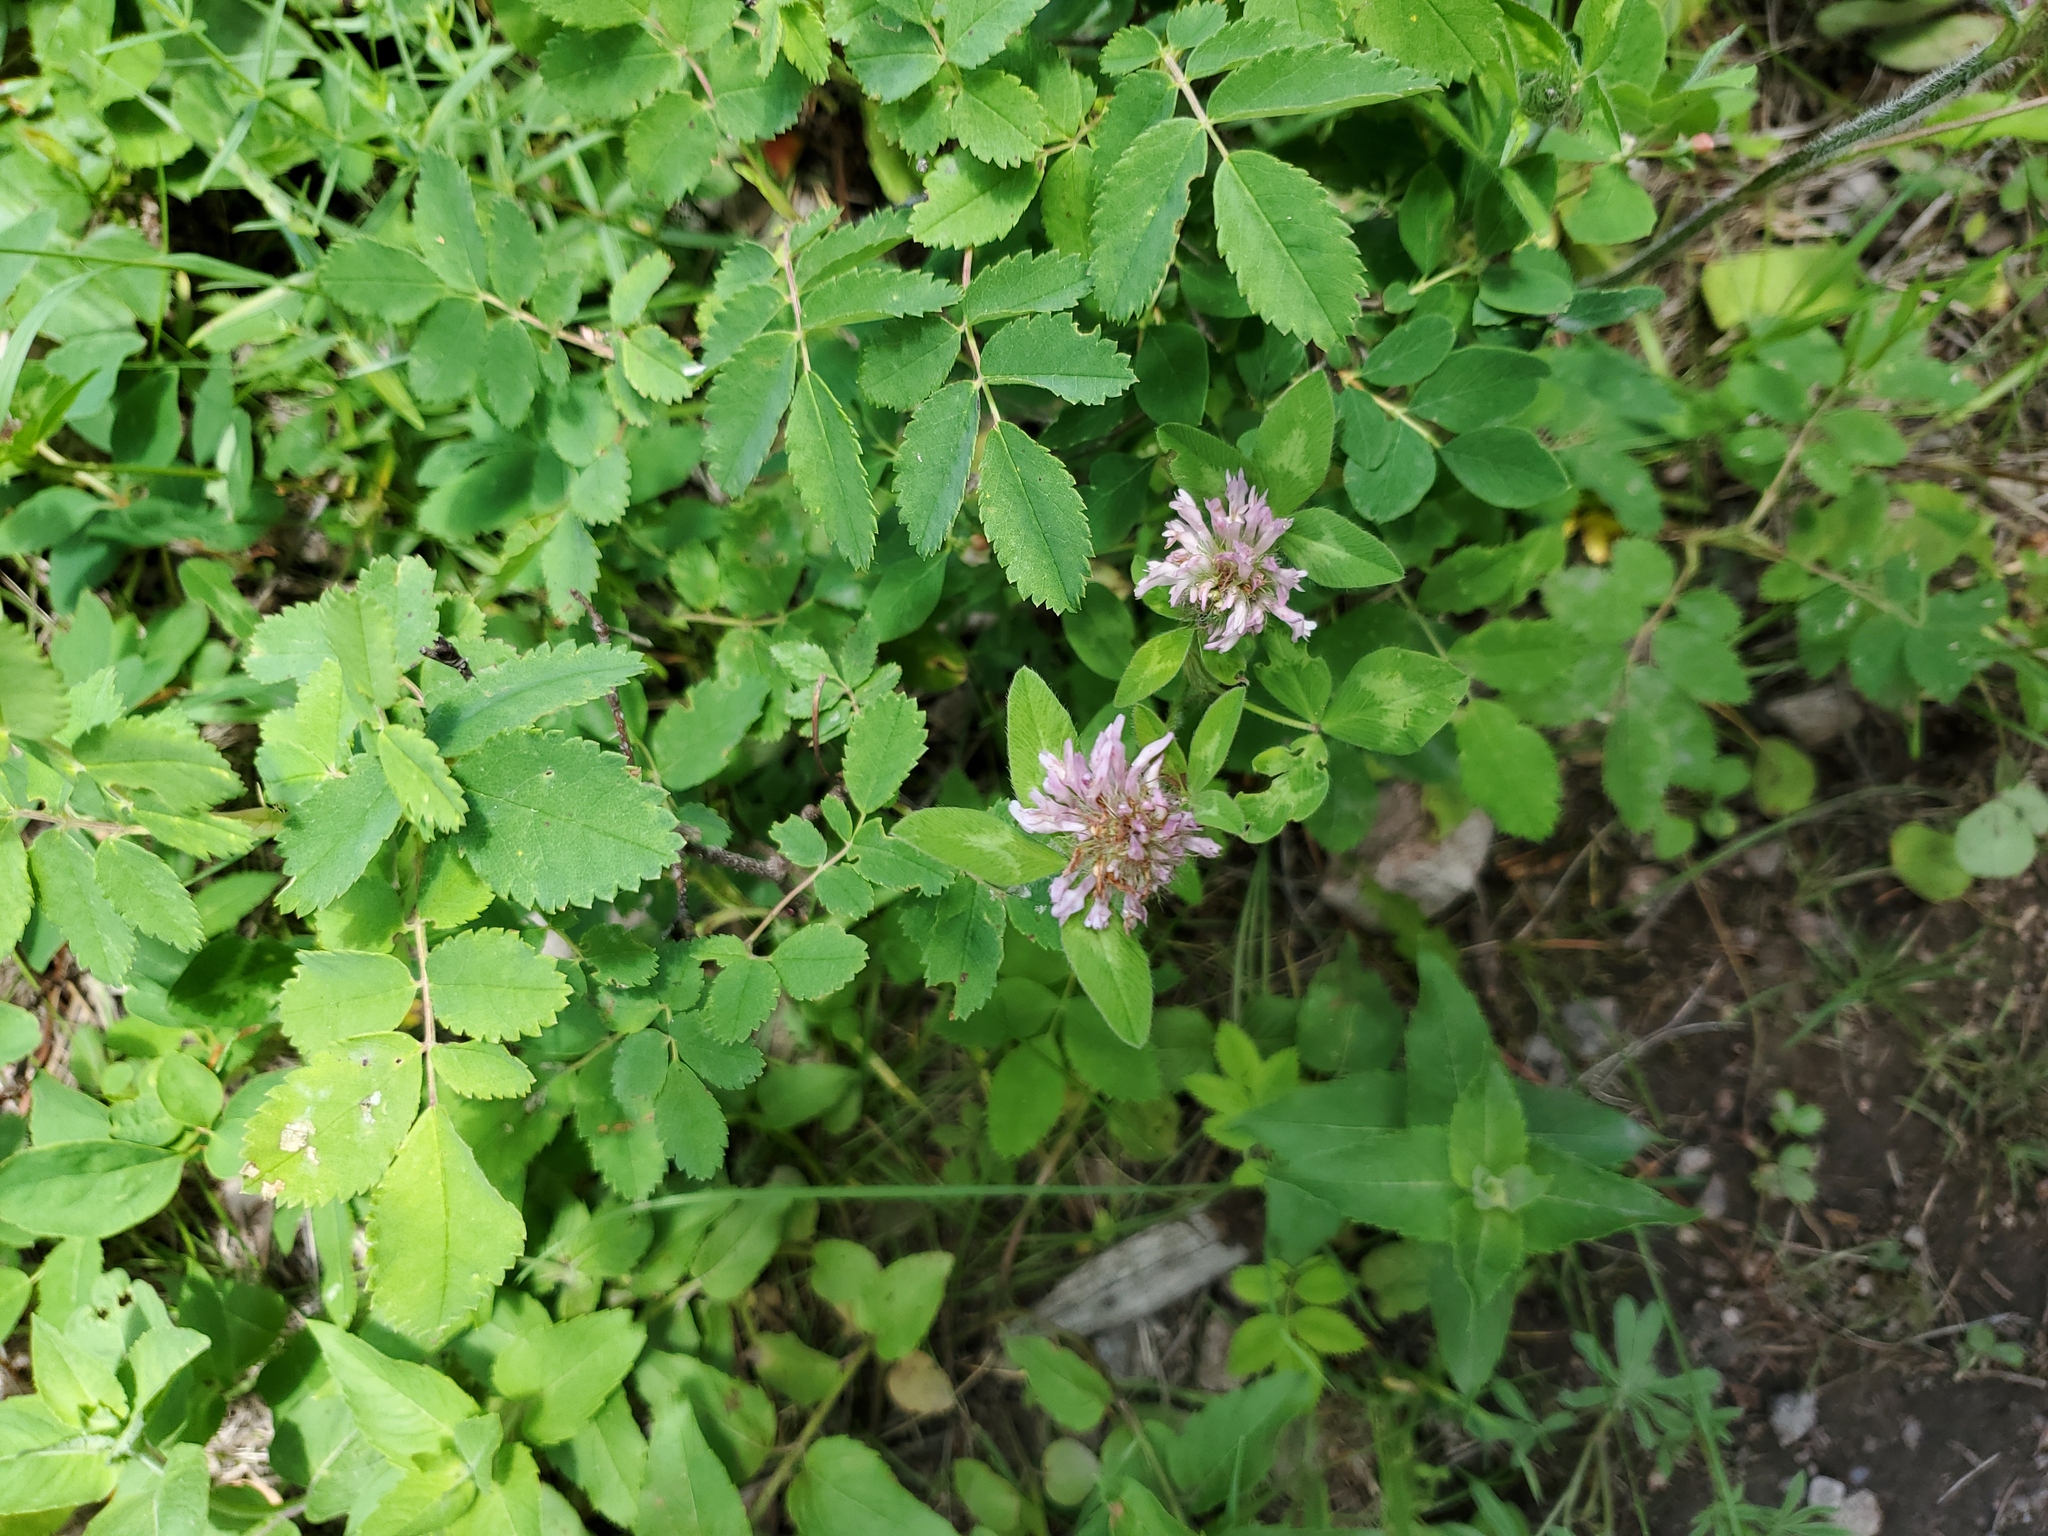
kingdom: Plantae
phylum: Tracheophyta
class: Magnoliopsida
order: Fabales
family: Fabaceae
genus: Trifolium
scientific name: Trifolium pratense
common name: Red clover
